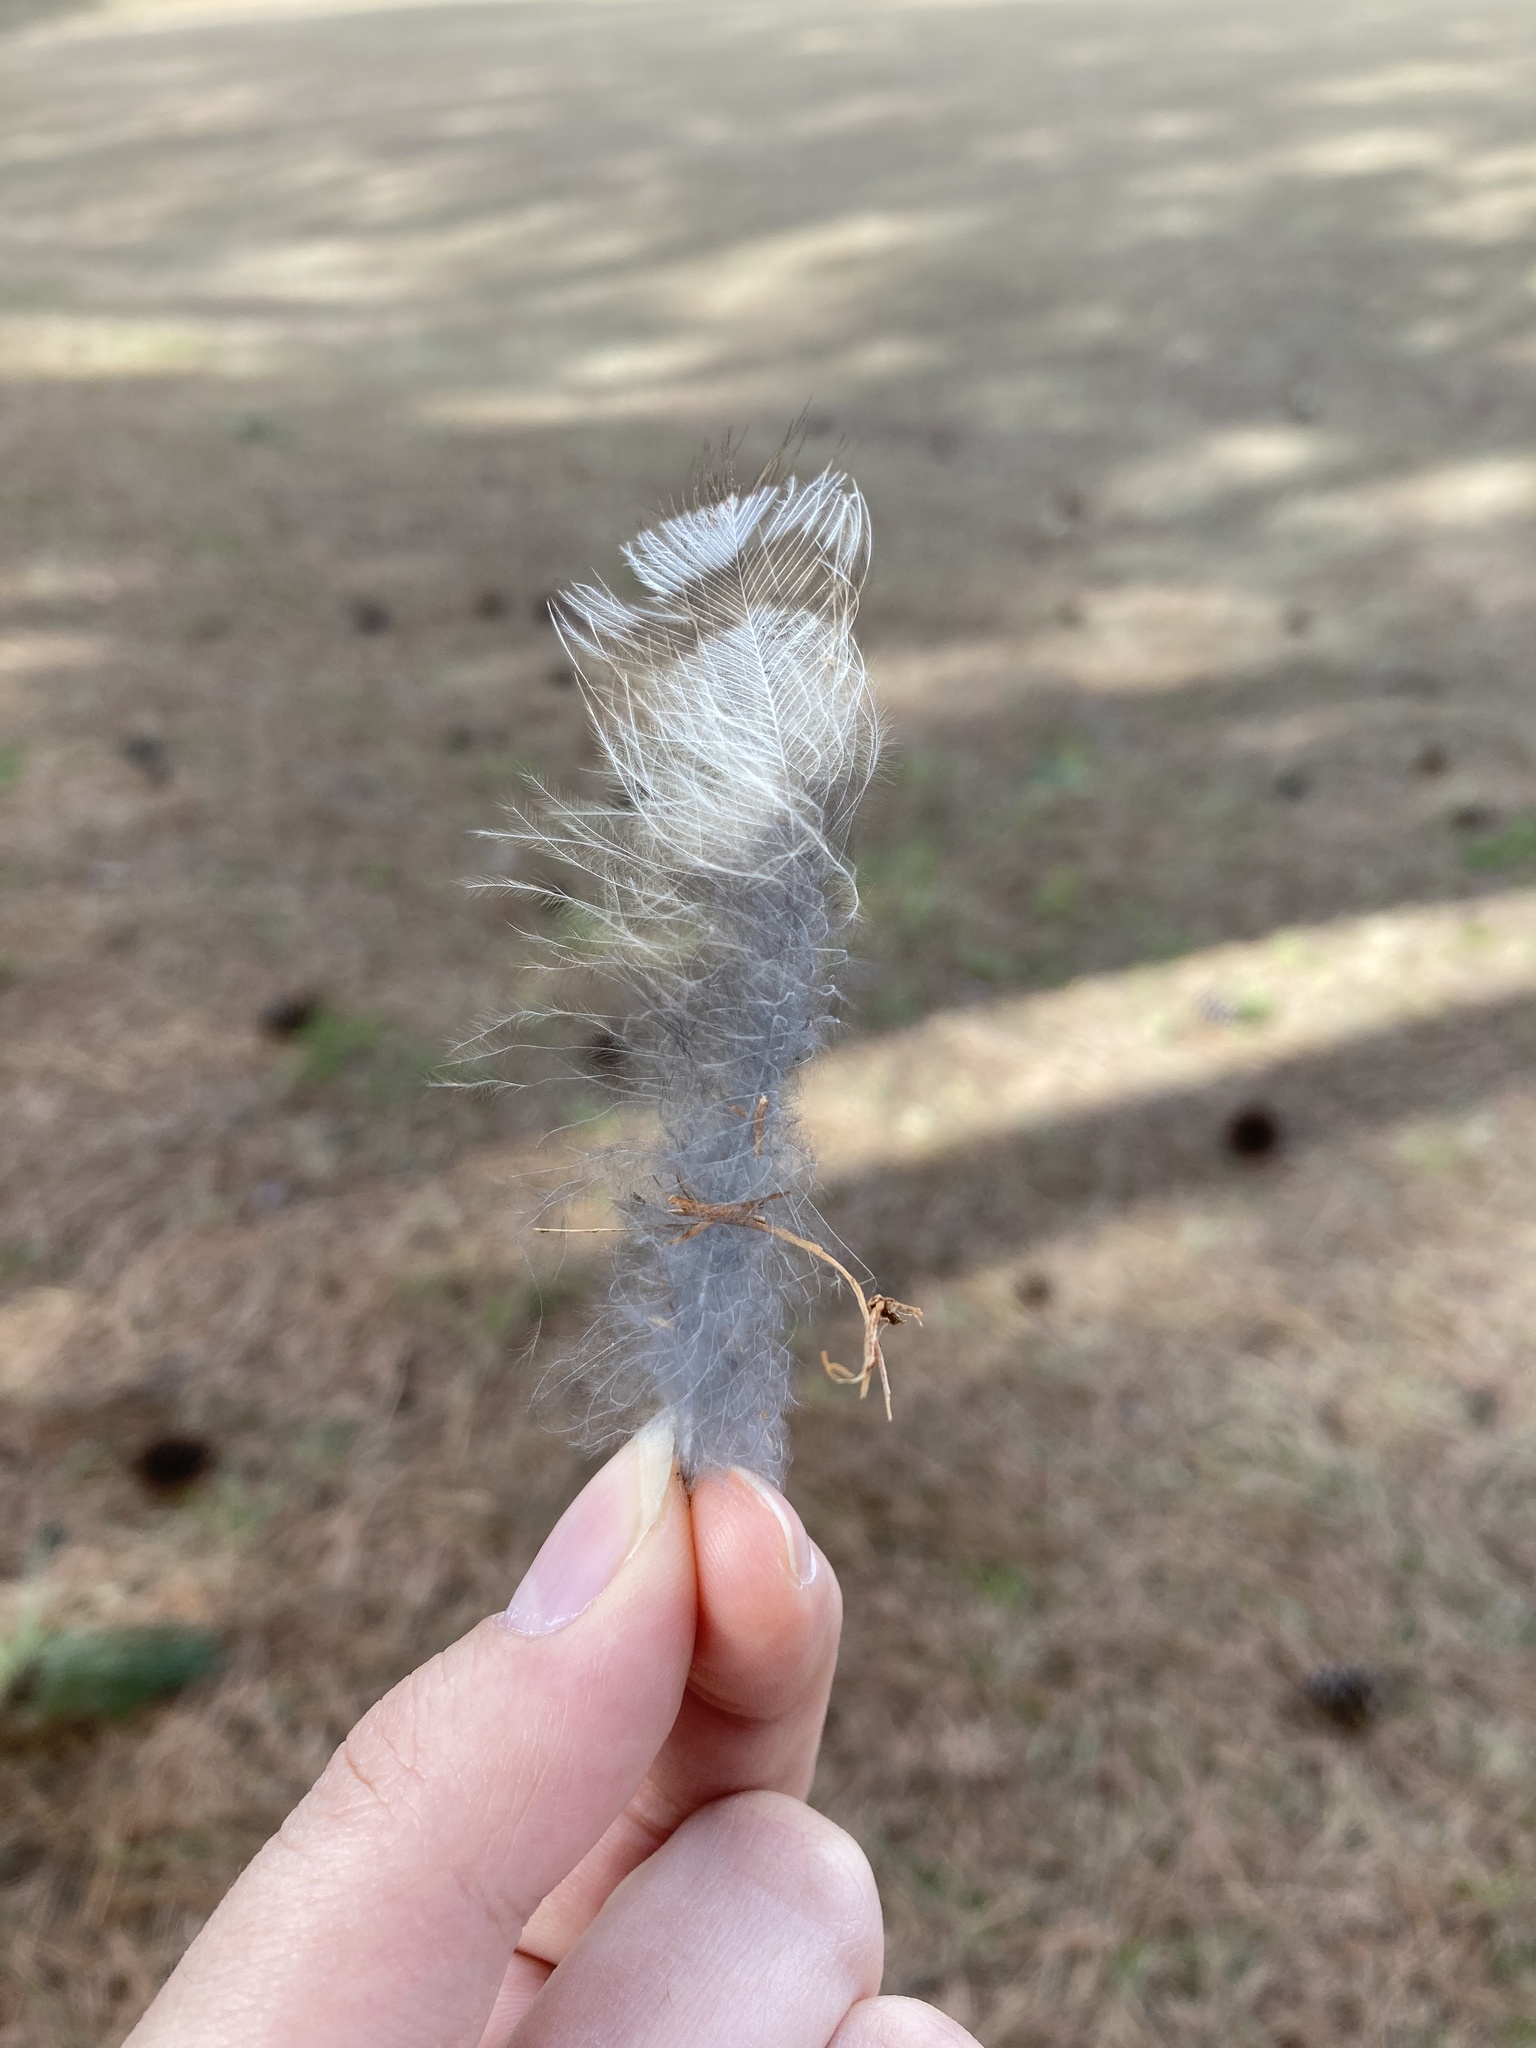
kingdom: Animalia
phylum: Chordata
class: Aves
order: Strigiformes
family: Strigidae
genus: Strix
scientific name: Strix varia
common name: Barred owl
